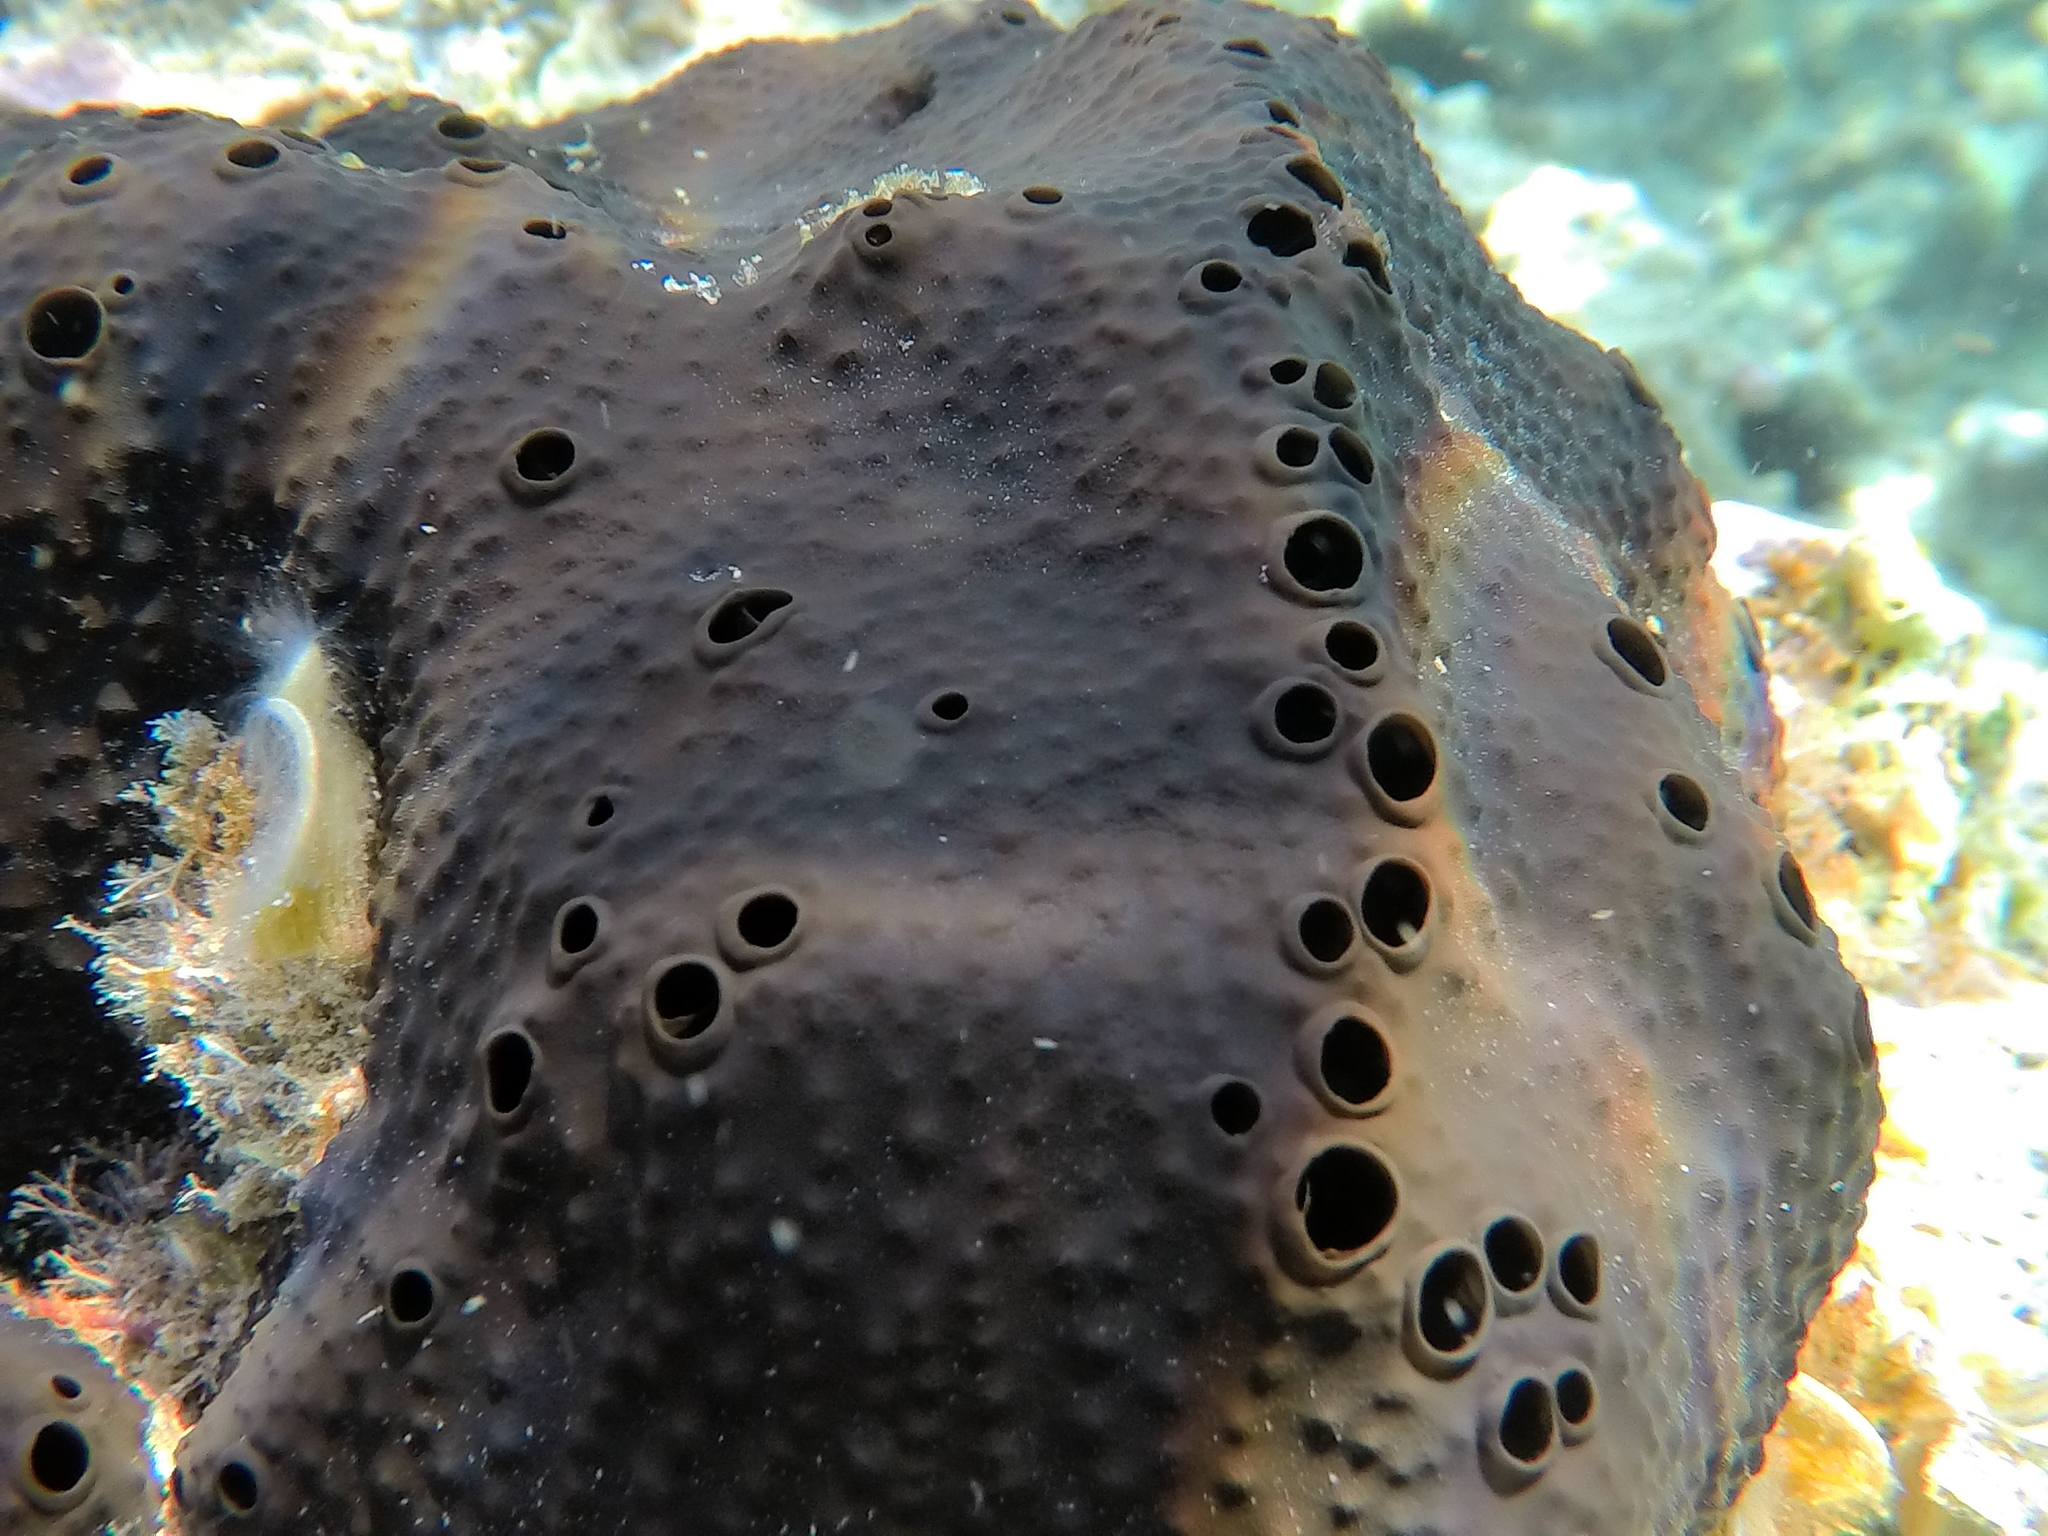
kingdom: Animalia
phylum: Porifera
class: Demospongiae
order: Dictyoceratida
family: Irciniidae
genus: Sarcotragus
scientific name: Sarcotragus spinosulus
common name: Black leather sponge
